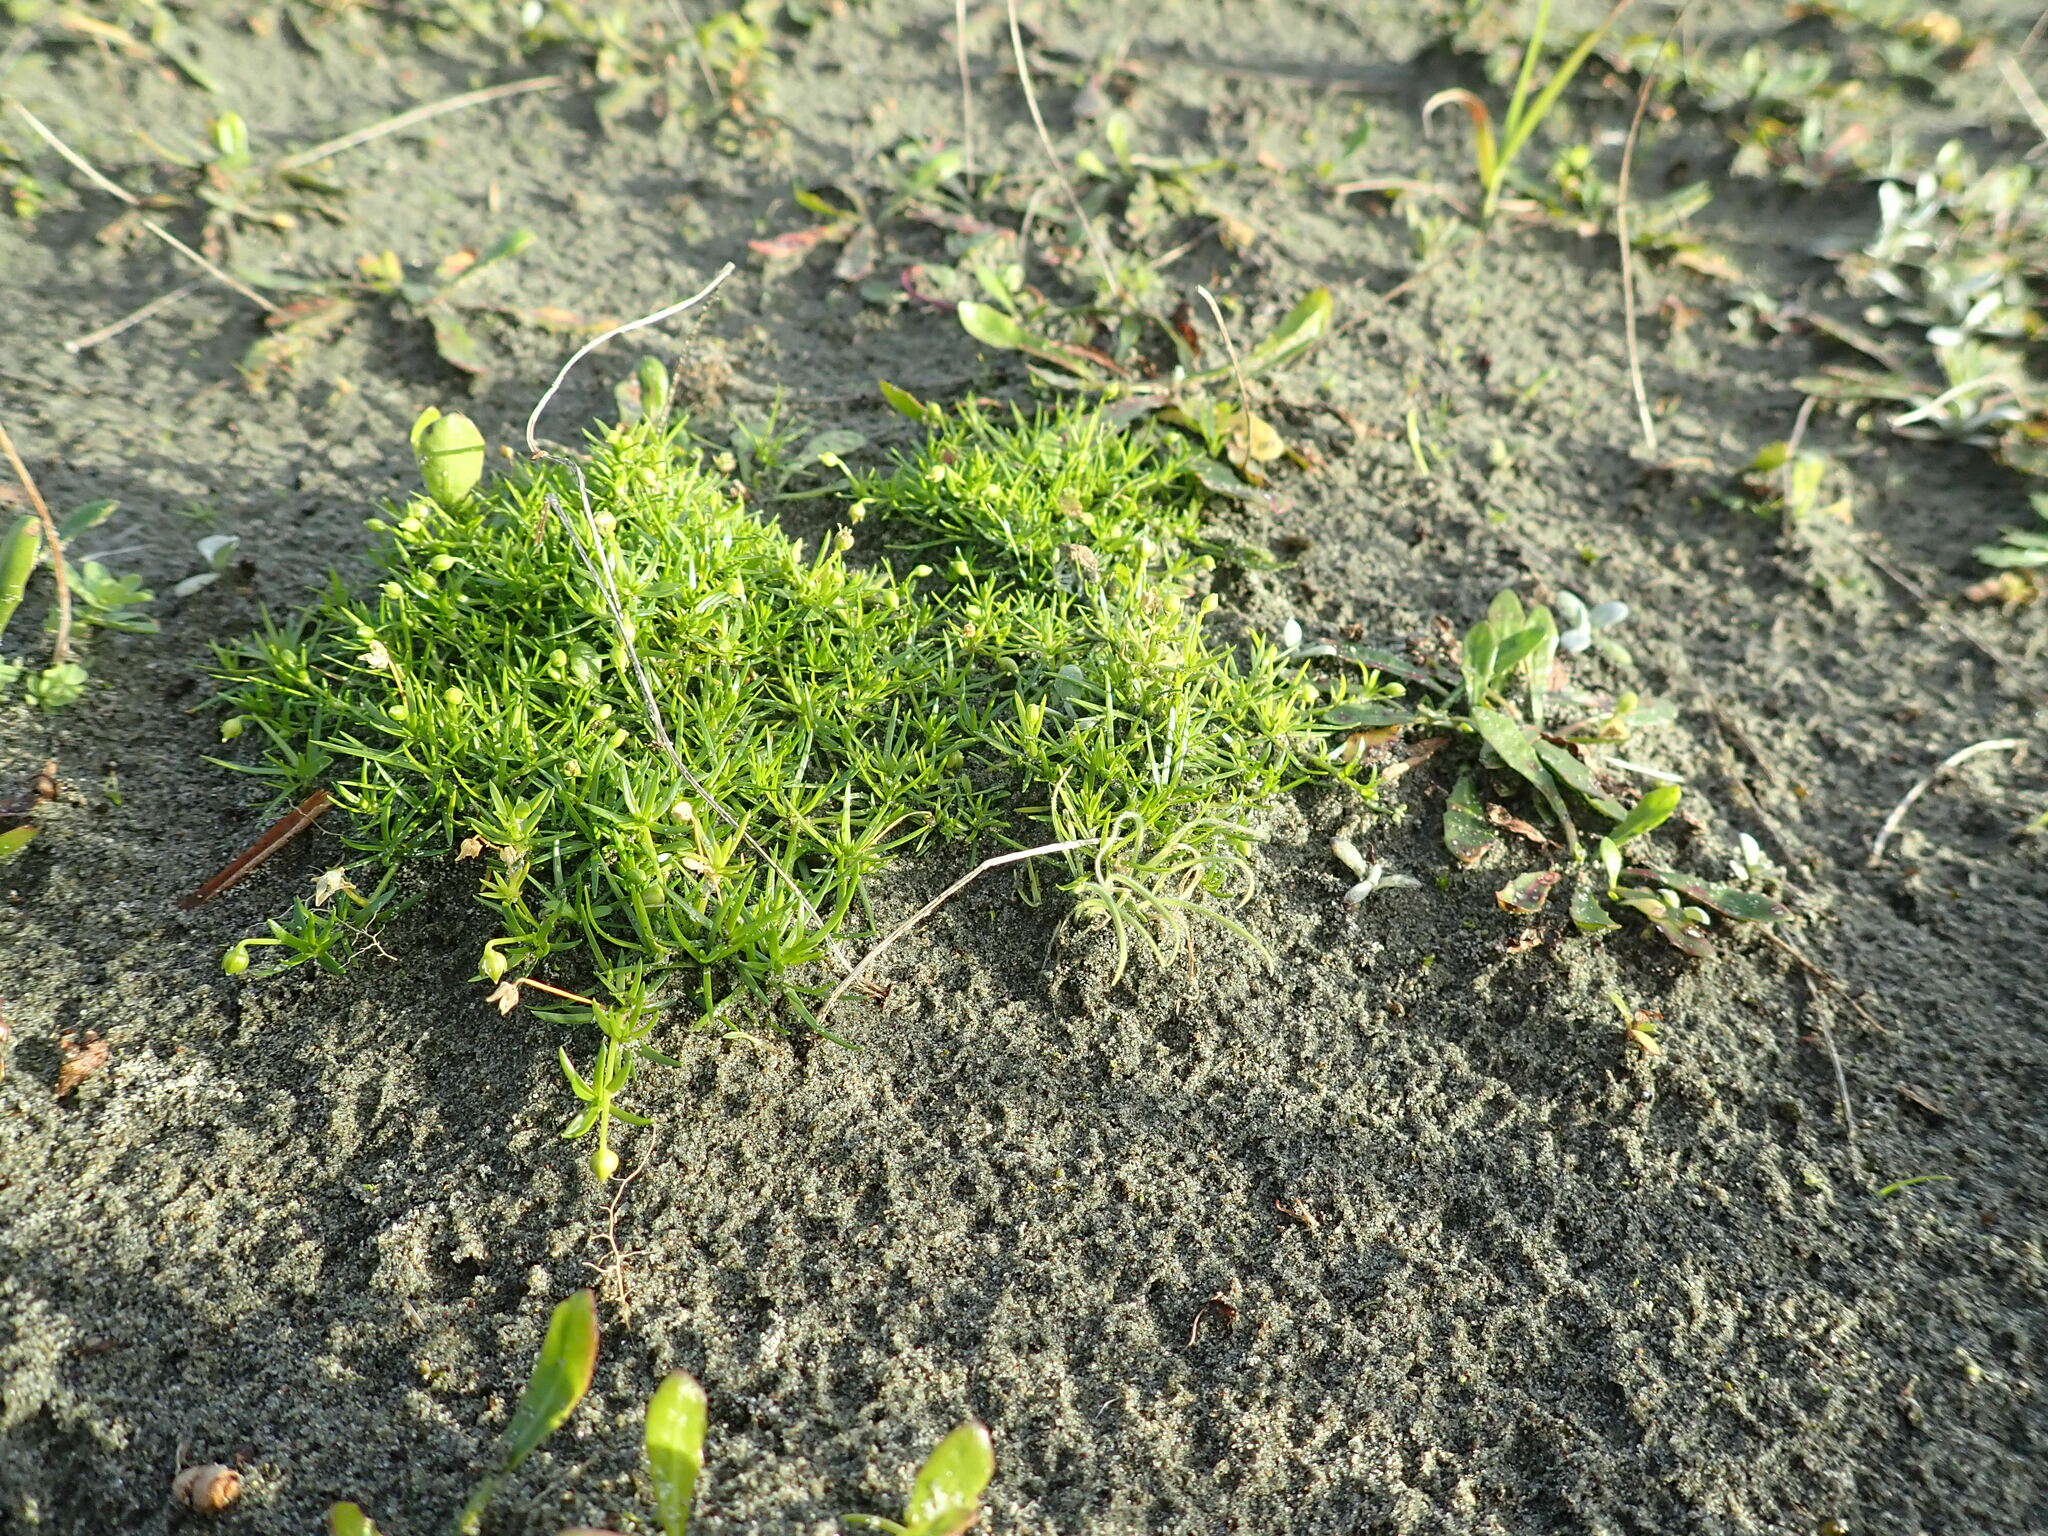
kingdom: Plantae
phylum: Tracheophyta
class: Magnoliopsida
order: Caryophyllales
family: Caryophyllaceae
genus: Sagina
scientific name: Sagina procumbens
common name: Procumbent pearlwort
